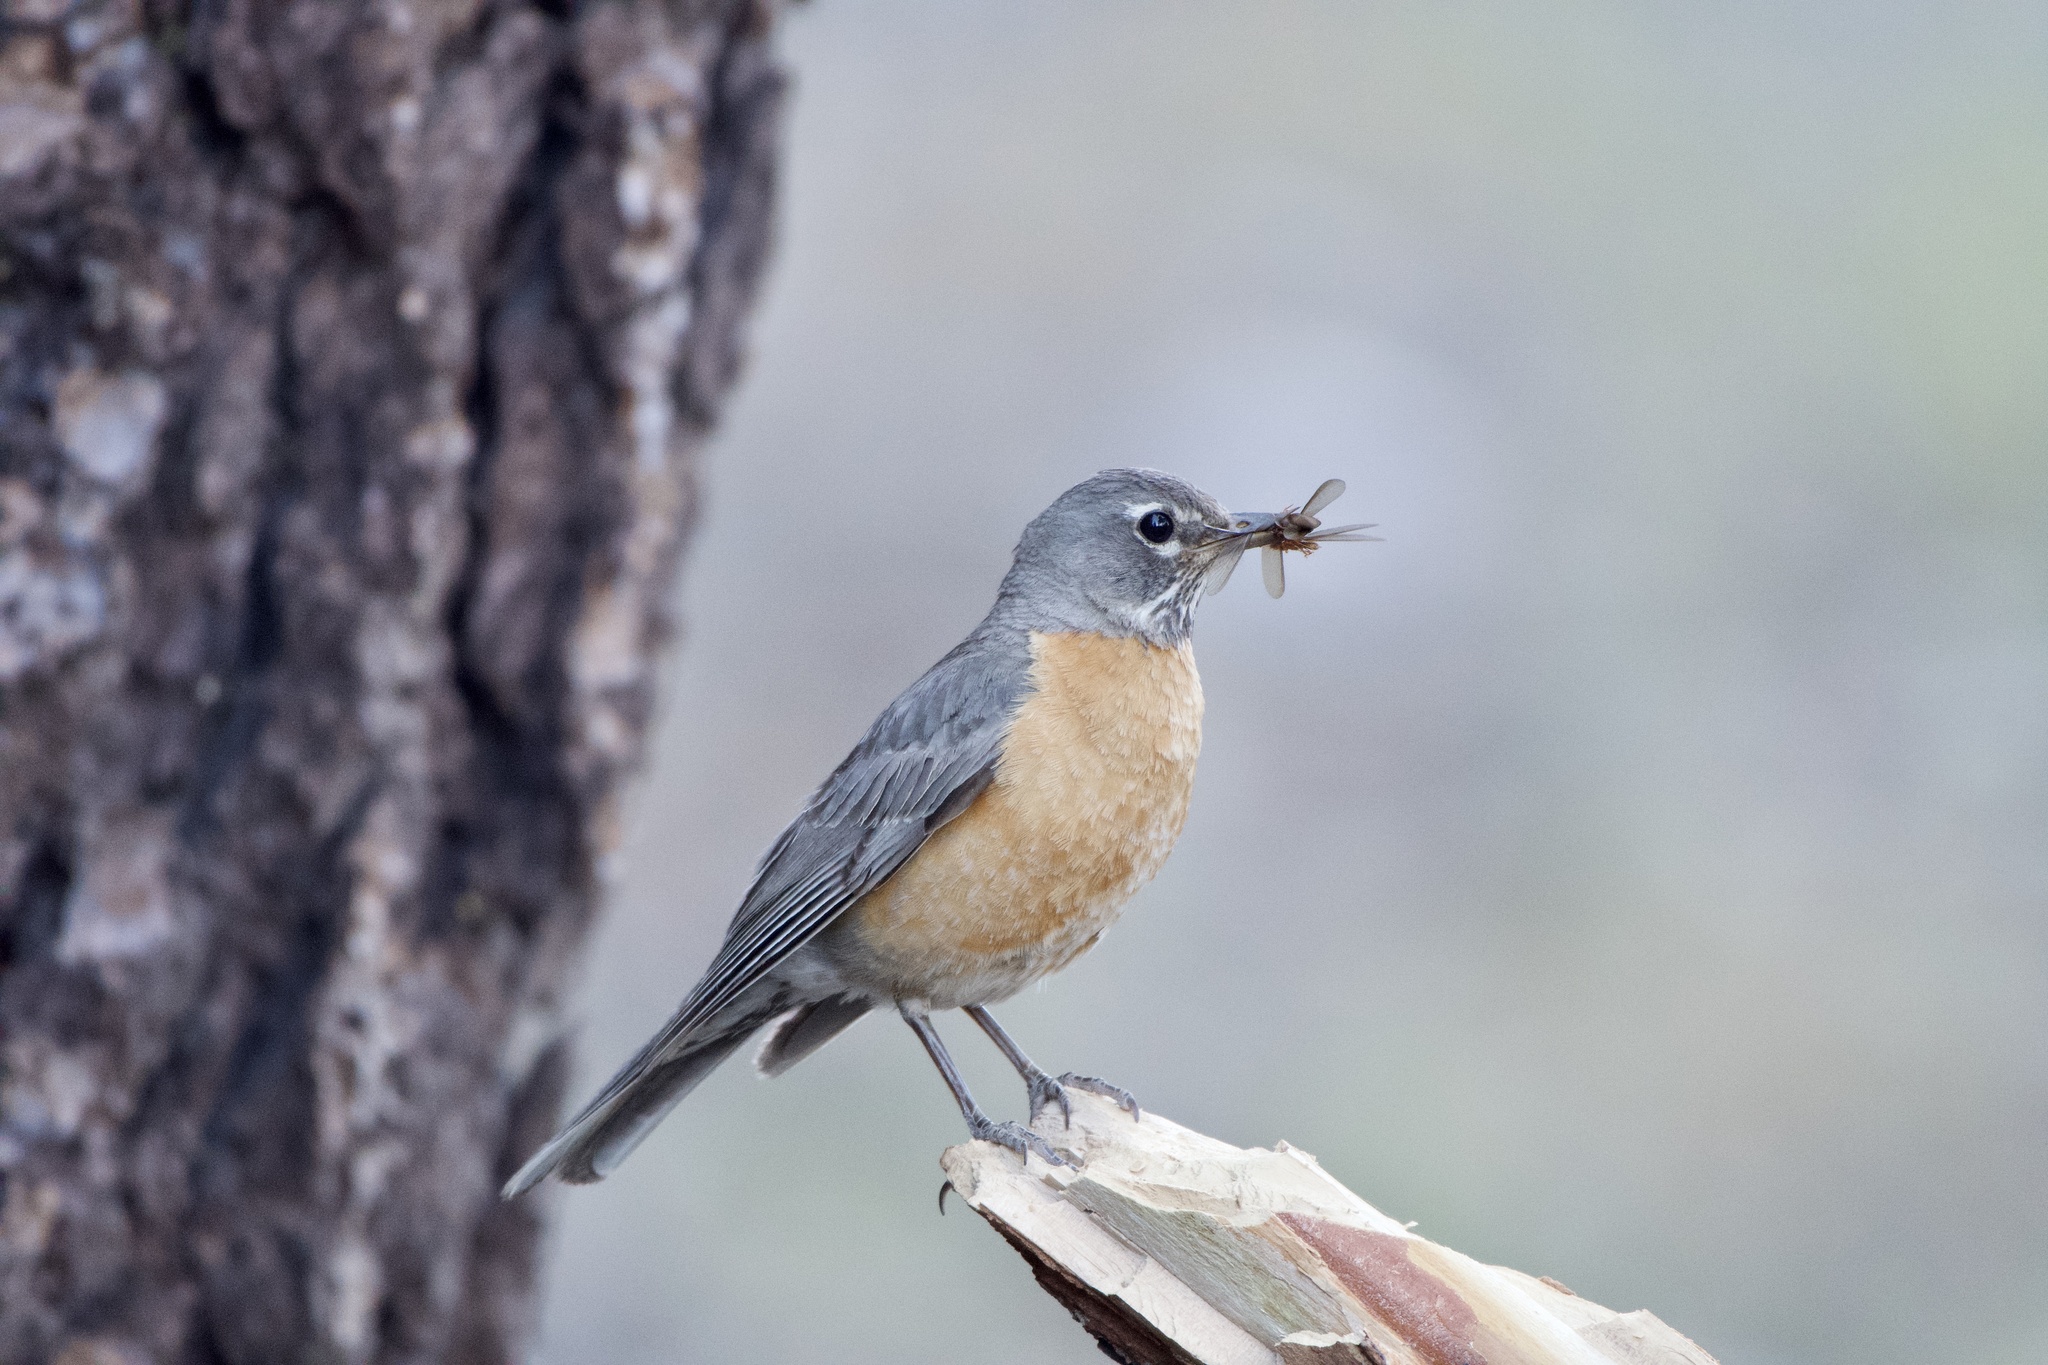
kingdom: Animalia
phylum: Chordata
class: Aves
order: Passeriformes
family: Turdidae
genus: Turdus
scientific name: Turdus migratorius
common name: American robin
